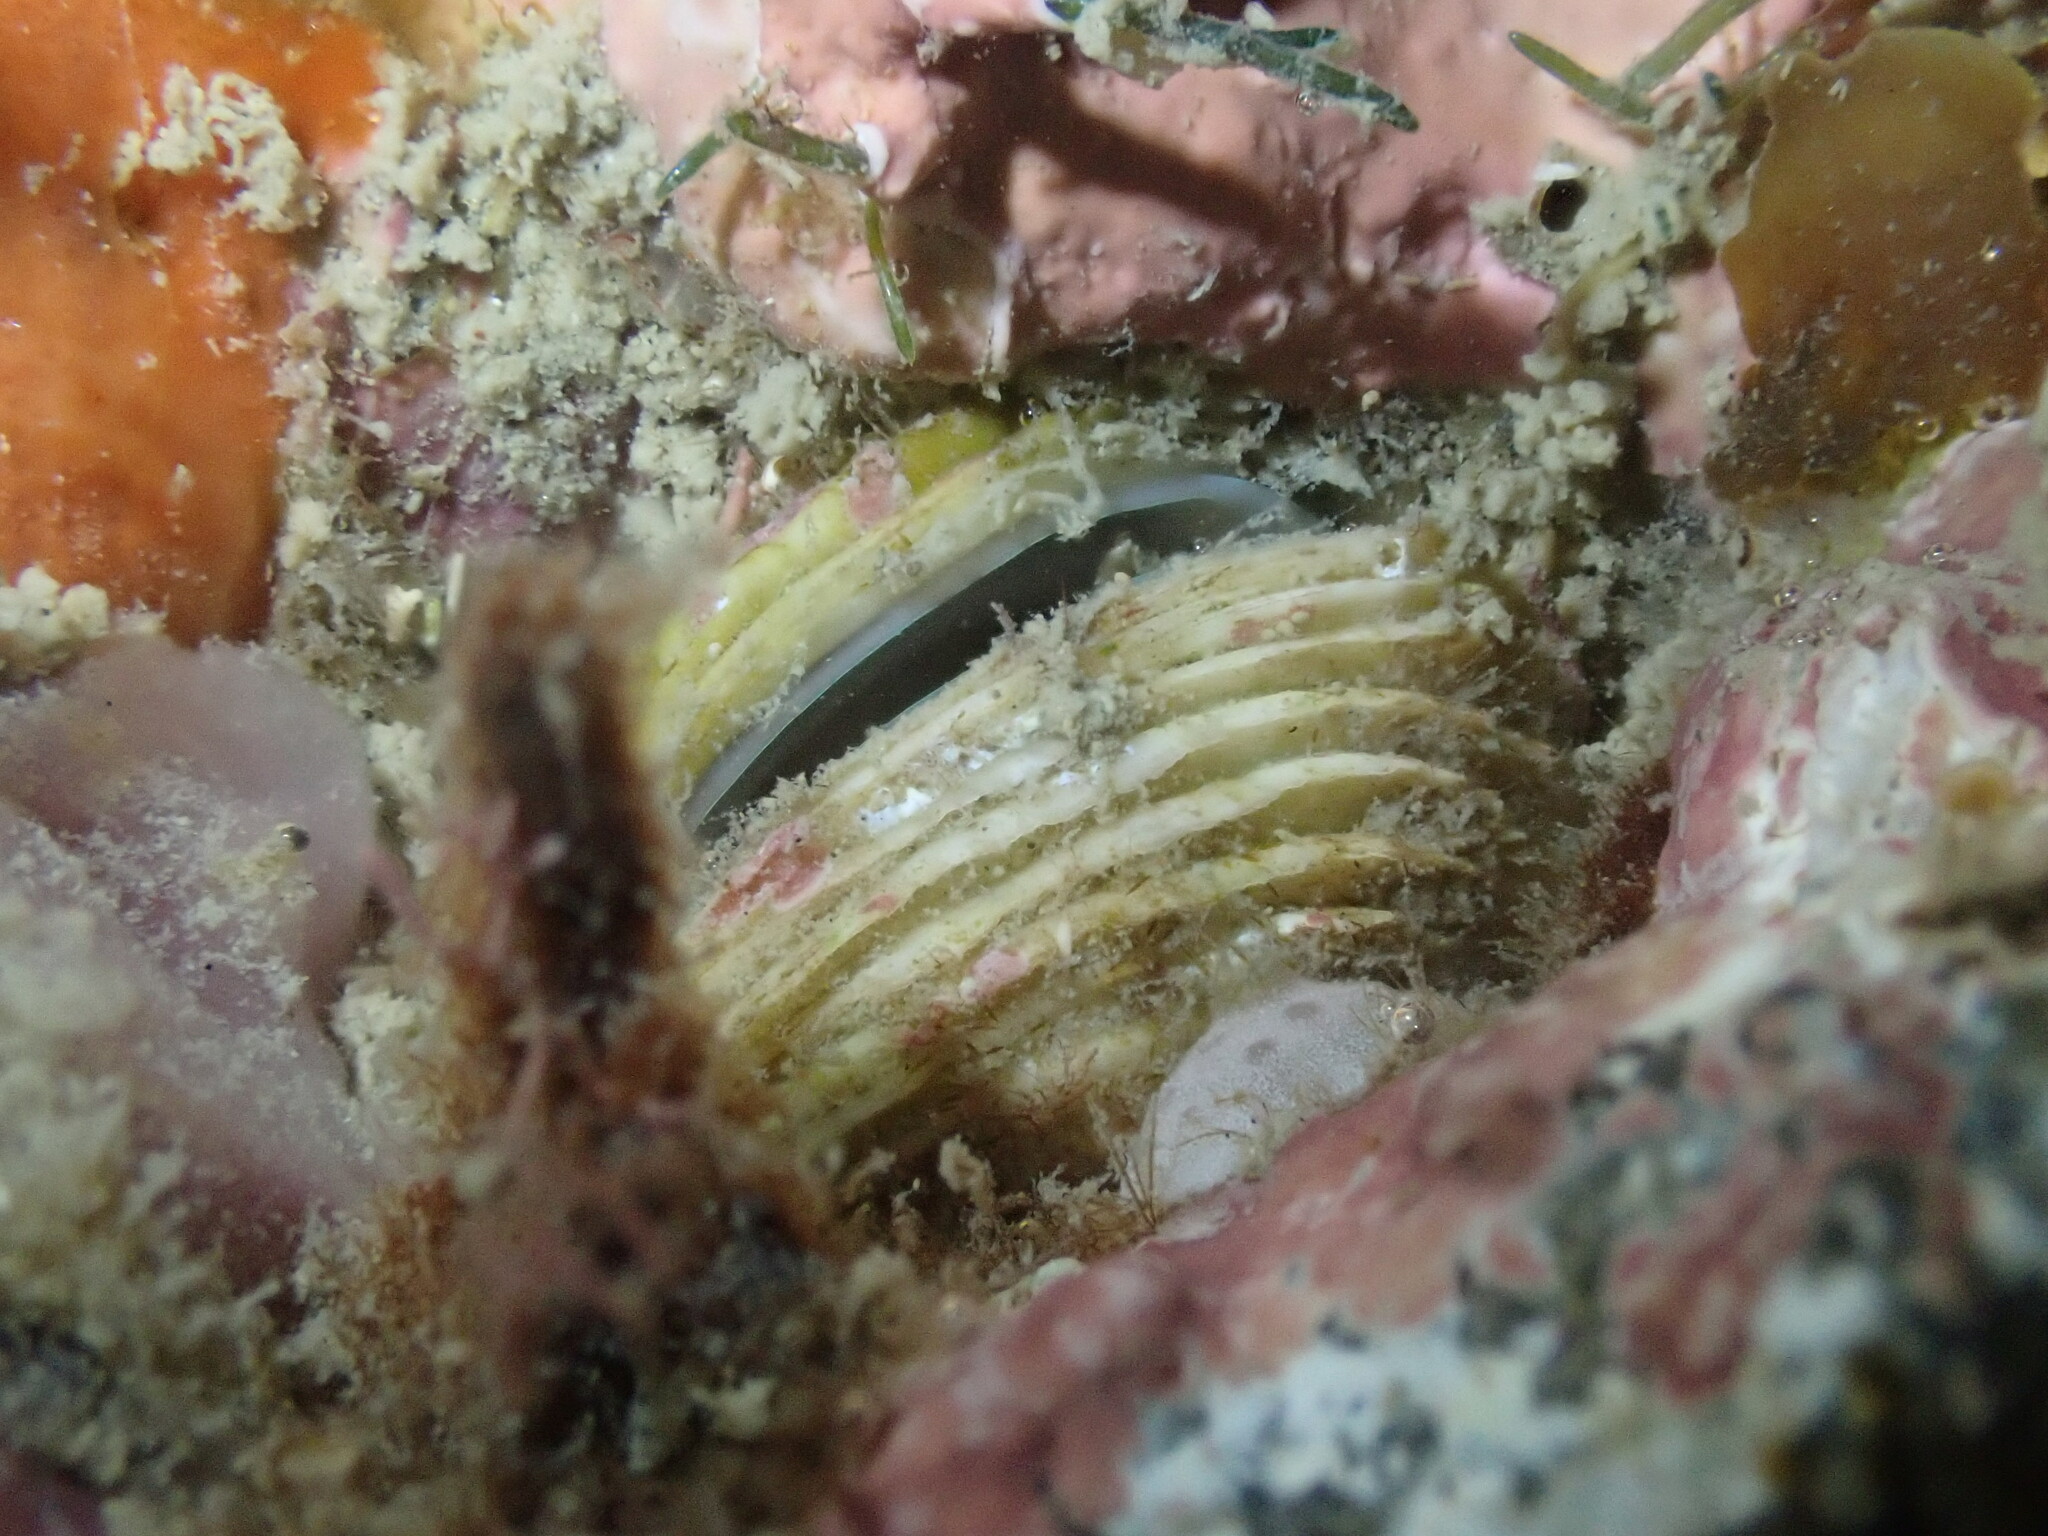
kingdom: Animalia
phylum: Mollusca
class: Bivalvia
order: Venerida
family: Veneridae
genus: Irus
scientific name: Irus reflexus
